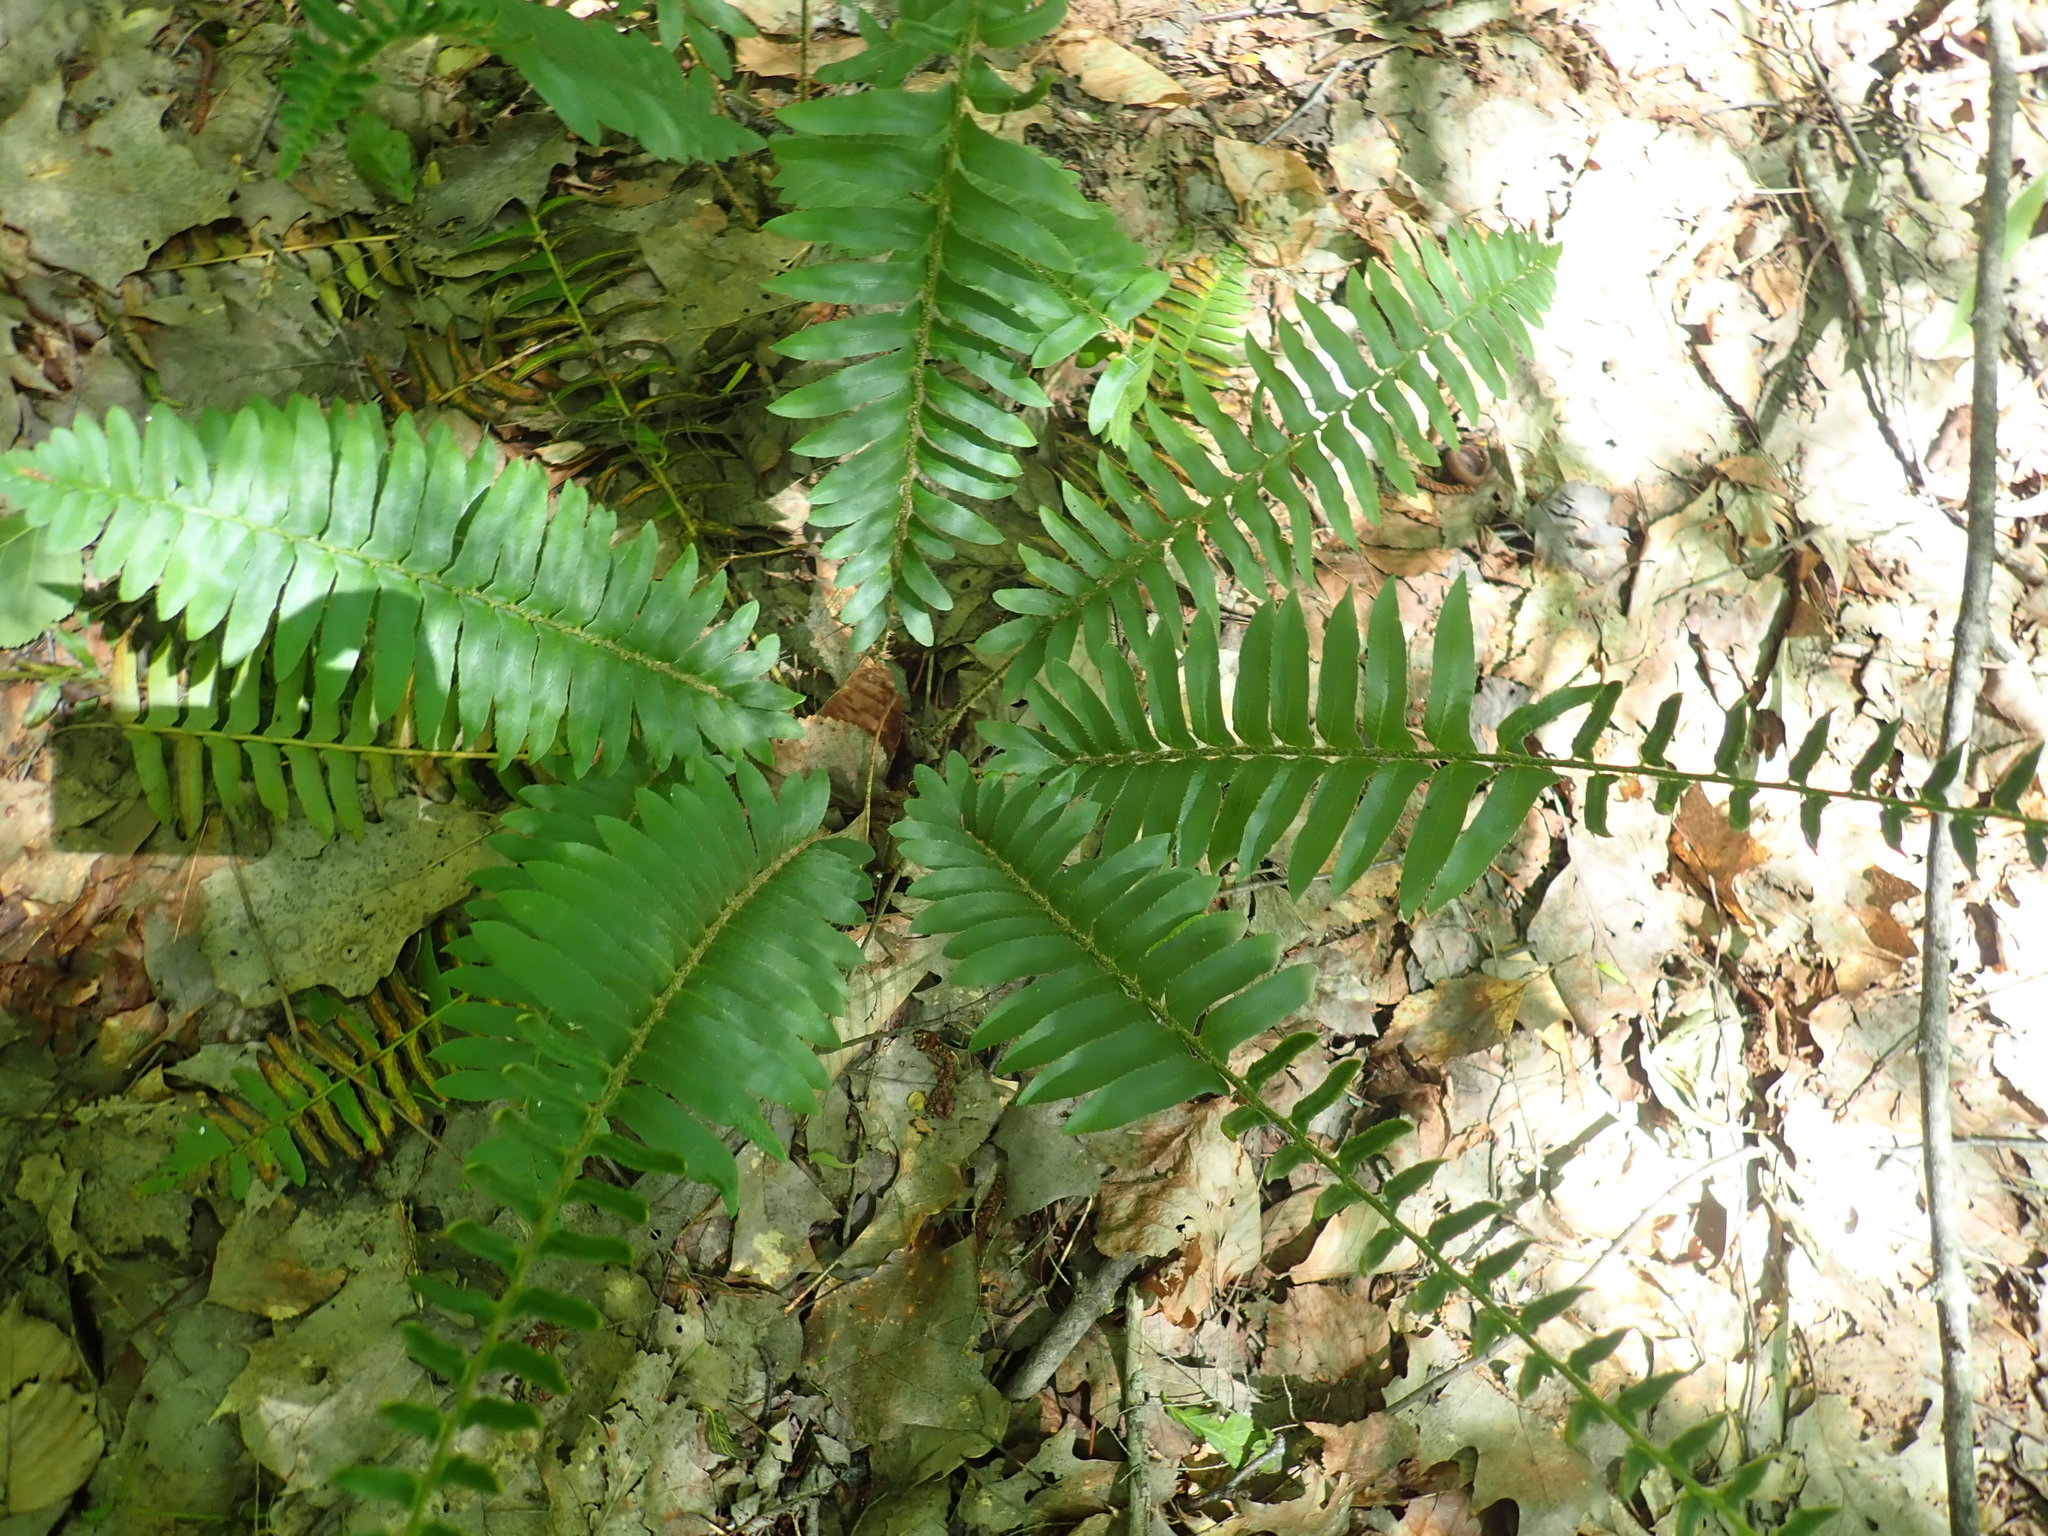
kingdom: Plantae
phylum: Tracheophyta
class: Polypodiopsida
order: Polypodiales
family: Dryopteridaceae
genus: Polystichum
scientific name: Polystichum acrostichoides
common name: Christmas fern
